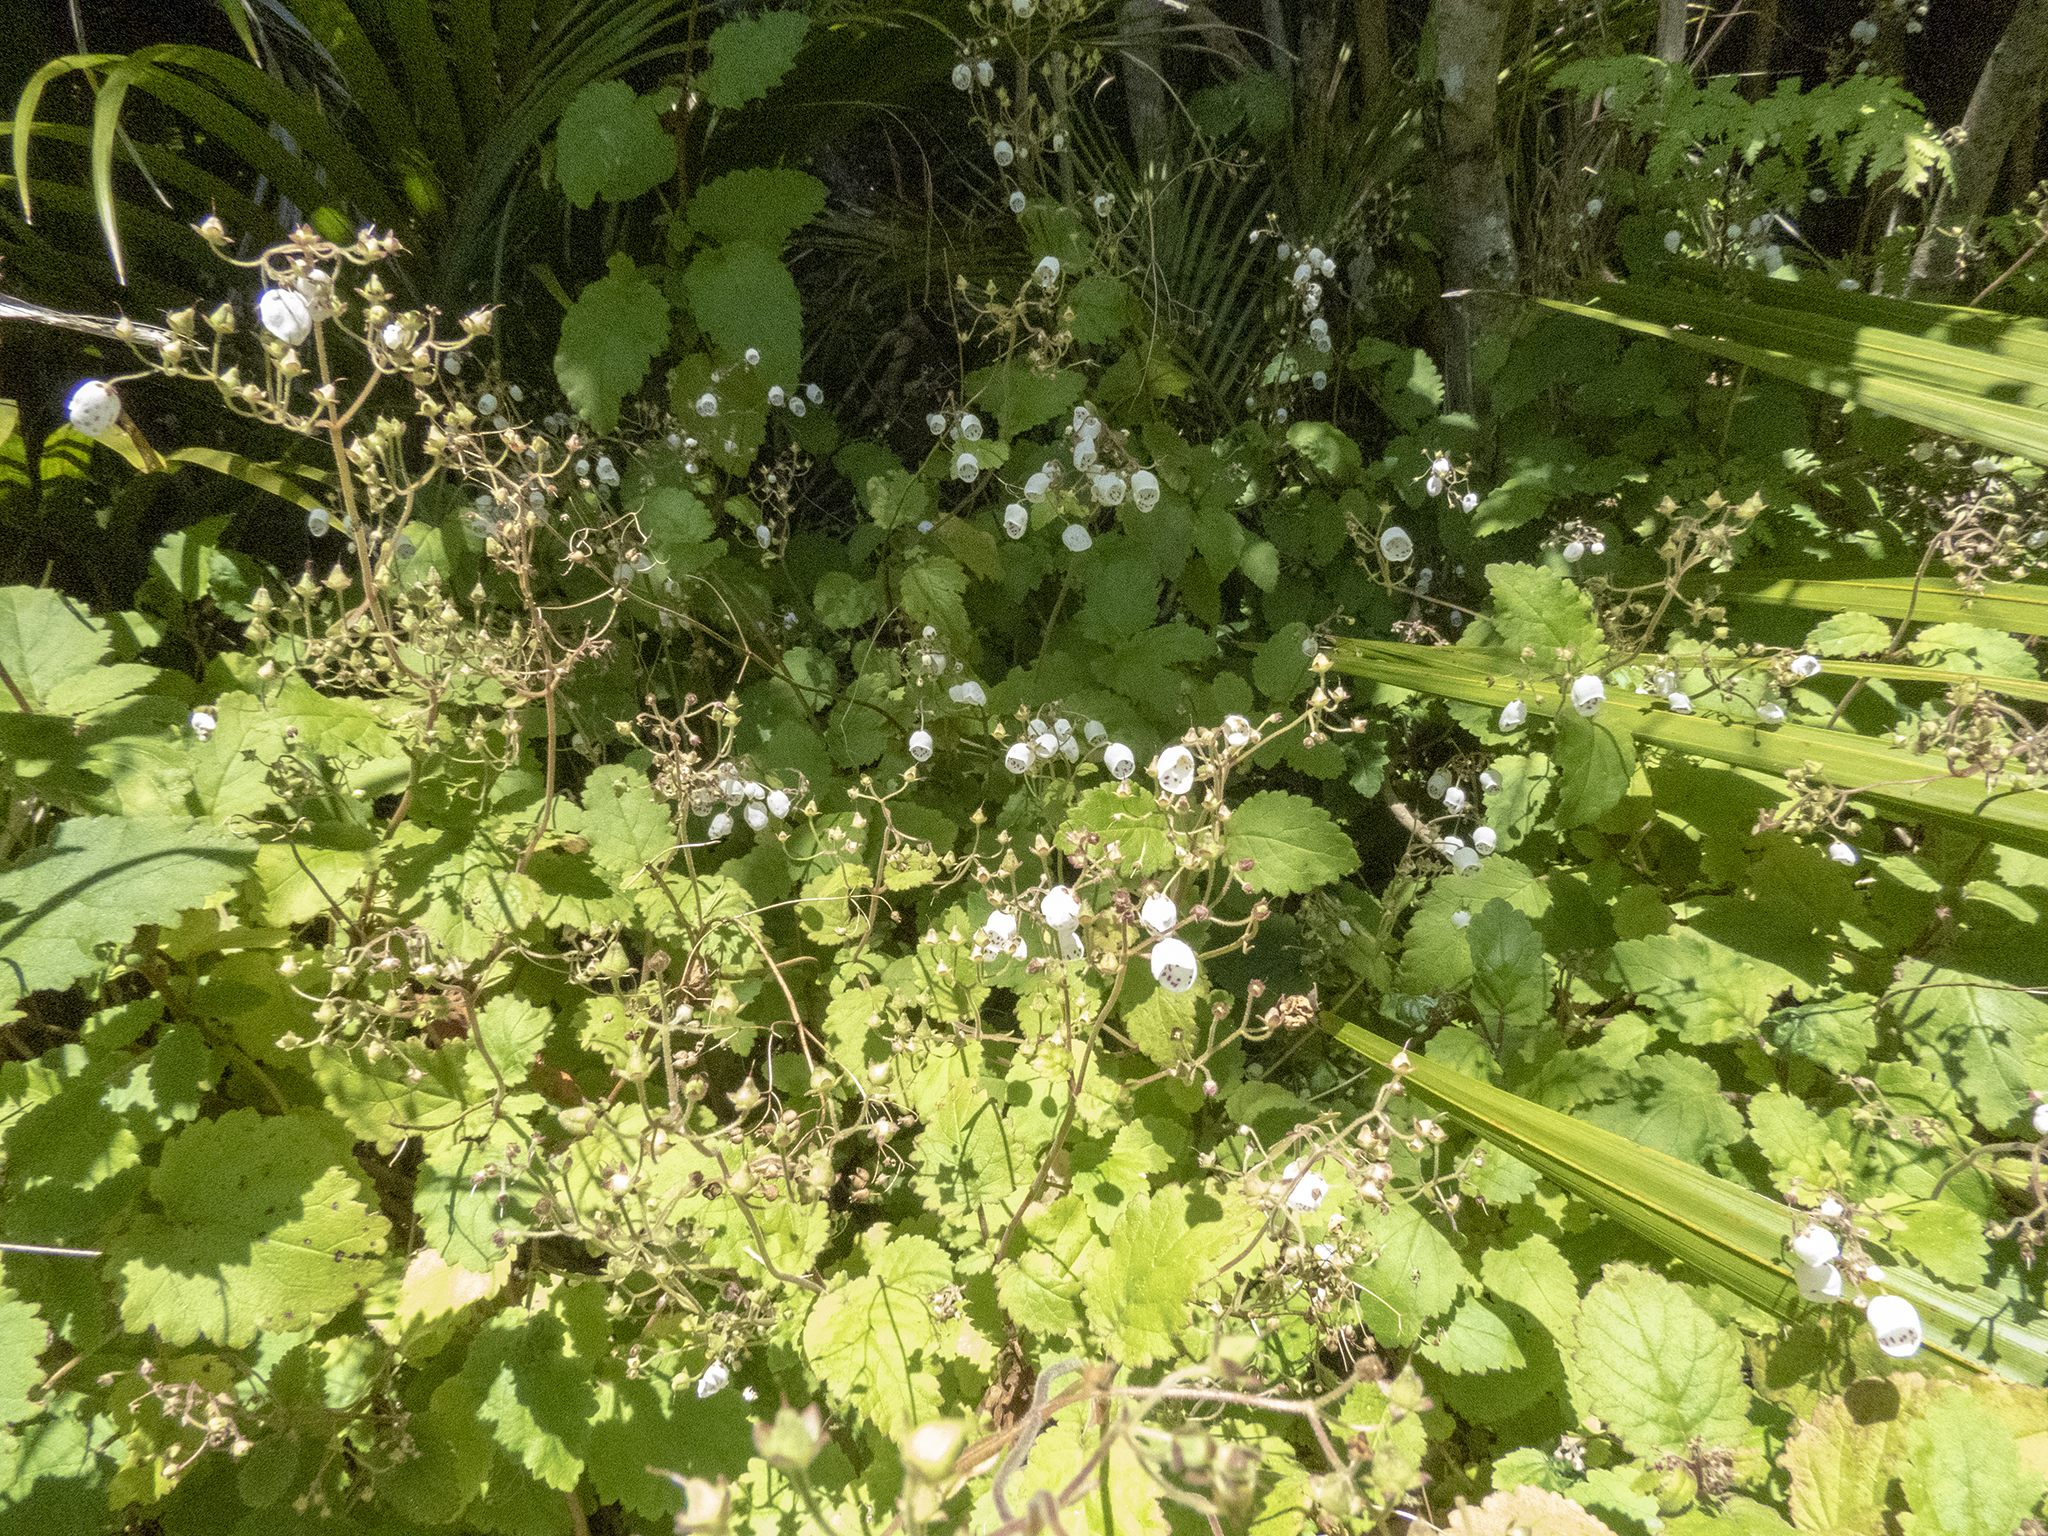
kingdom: Plantae
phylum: Tracheophyta
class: Magnoliopsida
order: Lamiales
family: Calceolariaceae
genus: Jovellana
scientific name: Jovellana sinclairii
